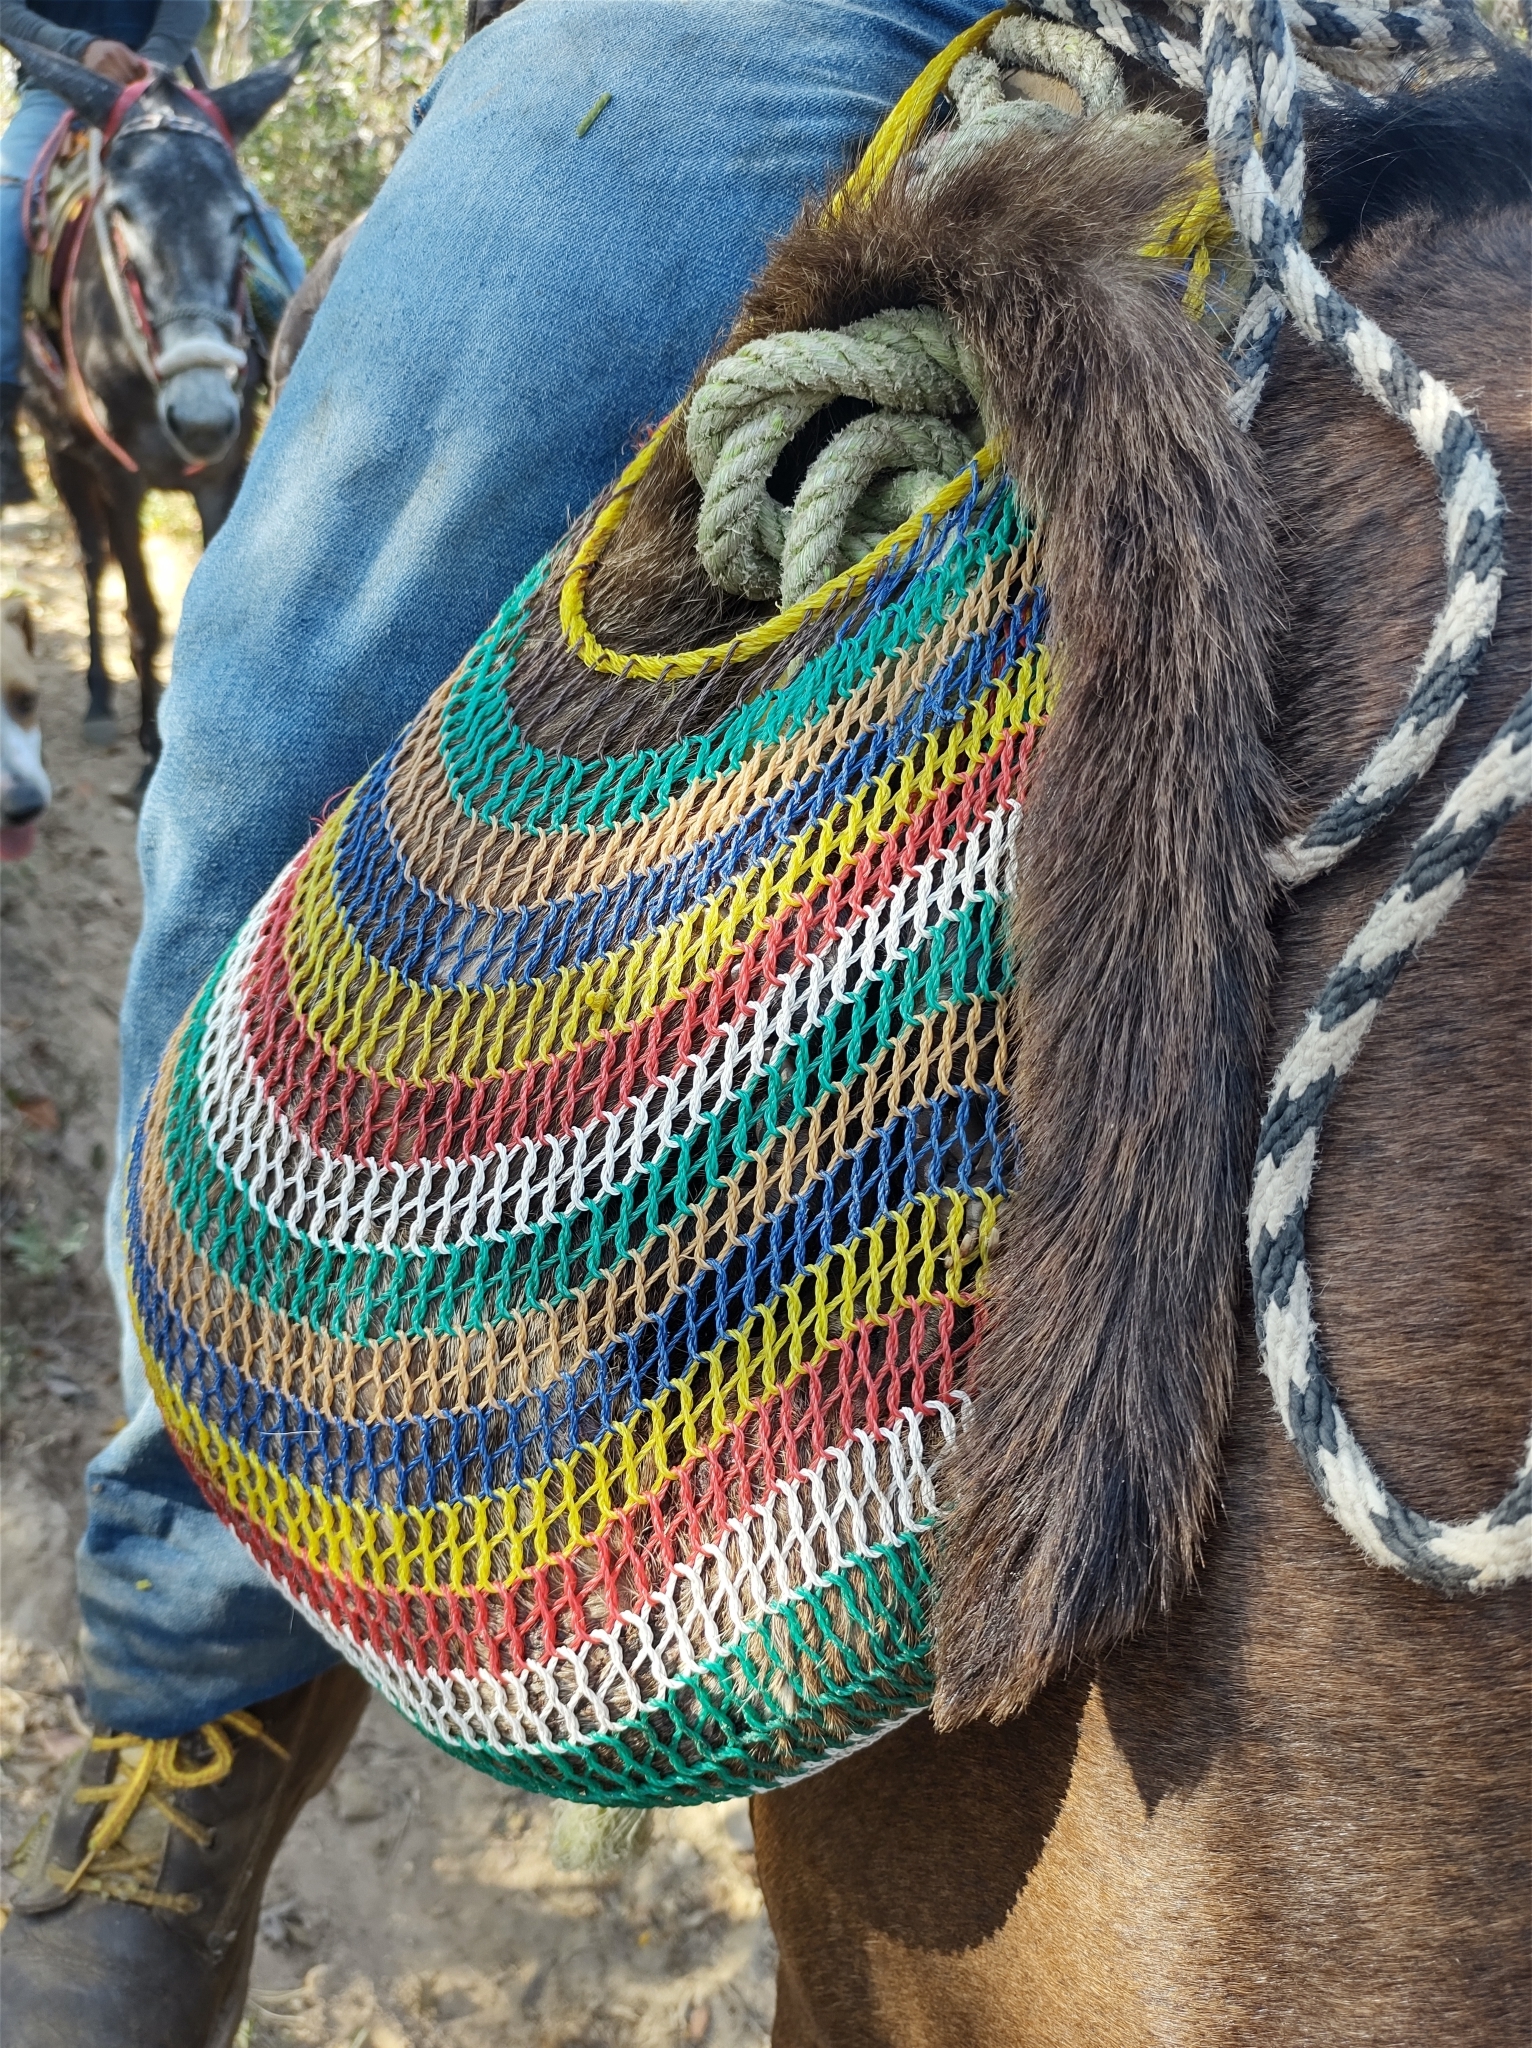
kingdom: Animalia
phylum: Chordata
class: Mammalia
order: Carnivora
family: Procyonidae
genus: Nasua
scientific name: Nasua narica
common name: White-nosed coati
